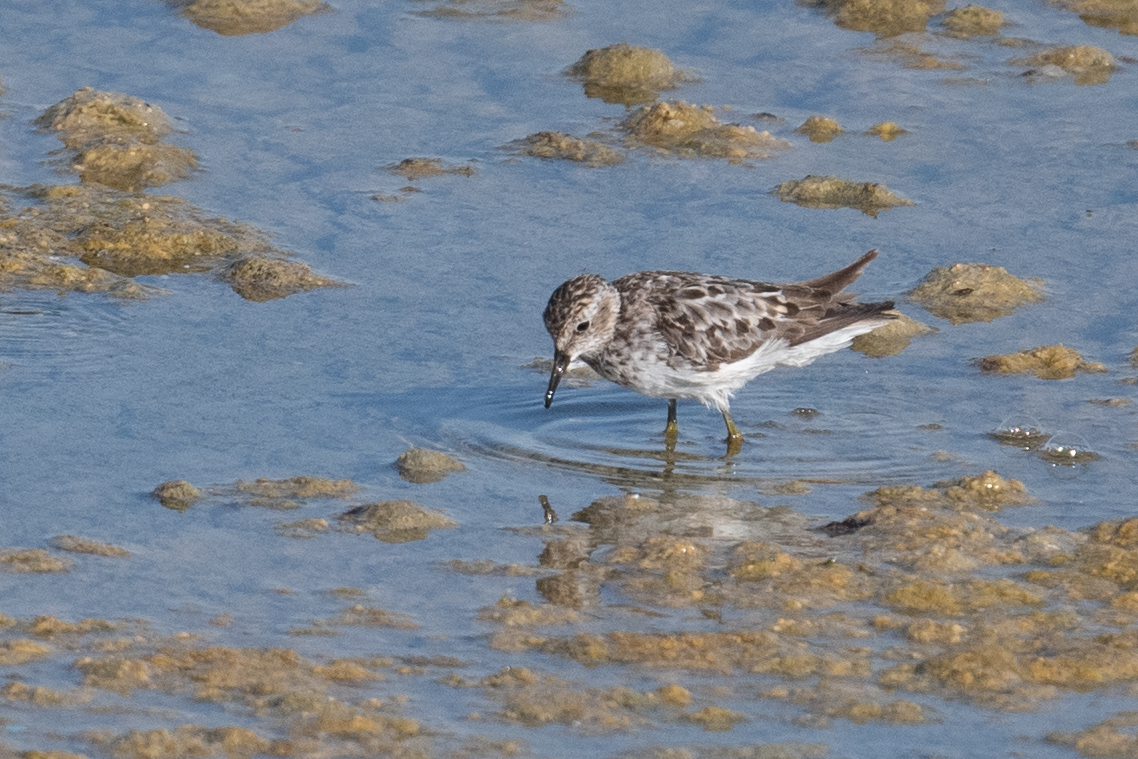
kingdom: Animalia
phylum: Chordata
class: Aves
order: Charadriiformes
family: Scolopacidae
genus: Calidris
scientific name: Calidris minutilla
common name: Least sandpiper
